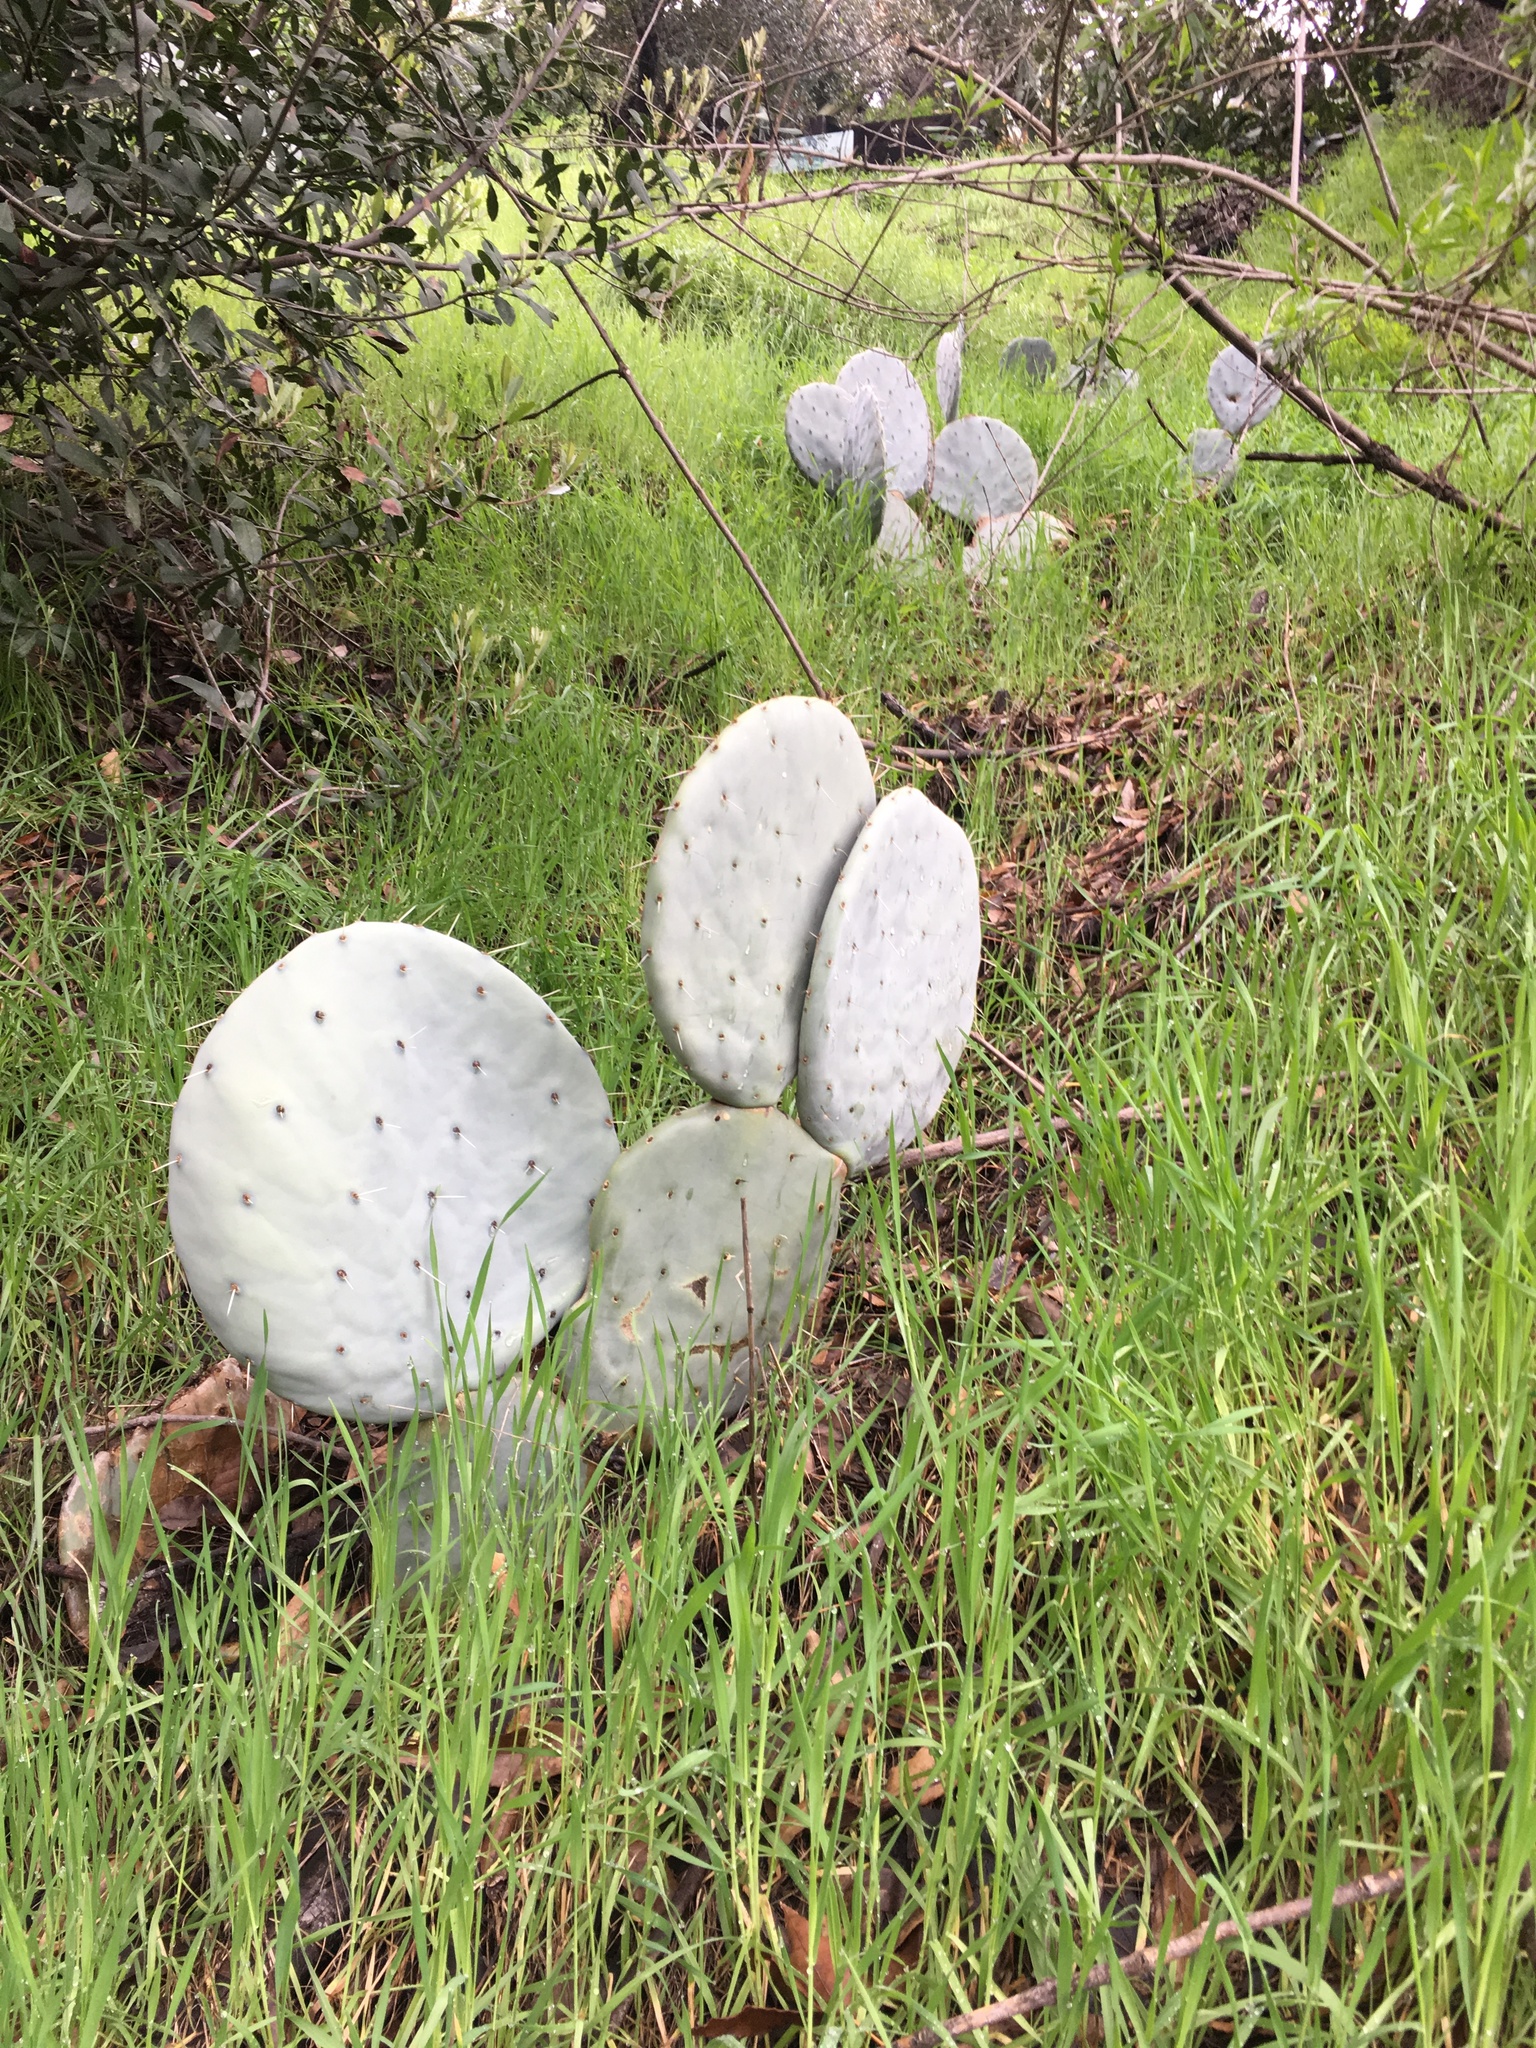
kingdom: Plantae
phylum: Tracheophyta
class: Magnoliopsida
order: Caryophyllales
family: Cactaceae
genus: Opuntia
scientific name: Opuntia robusta
